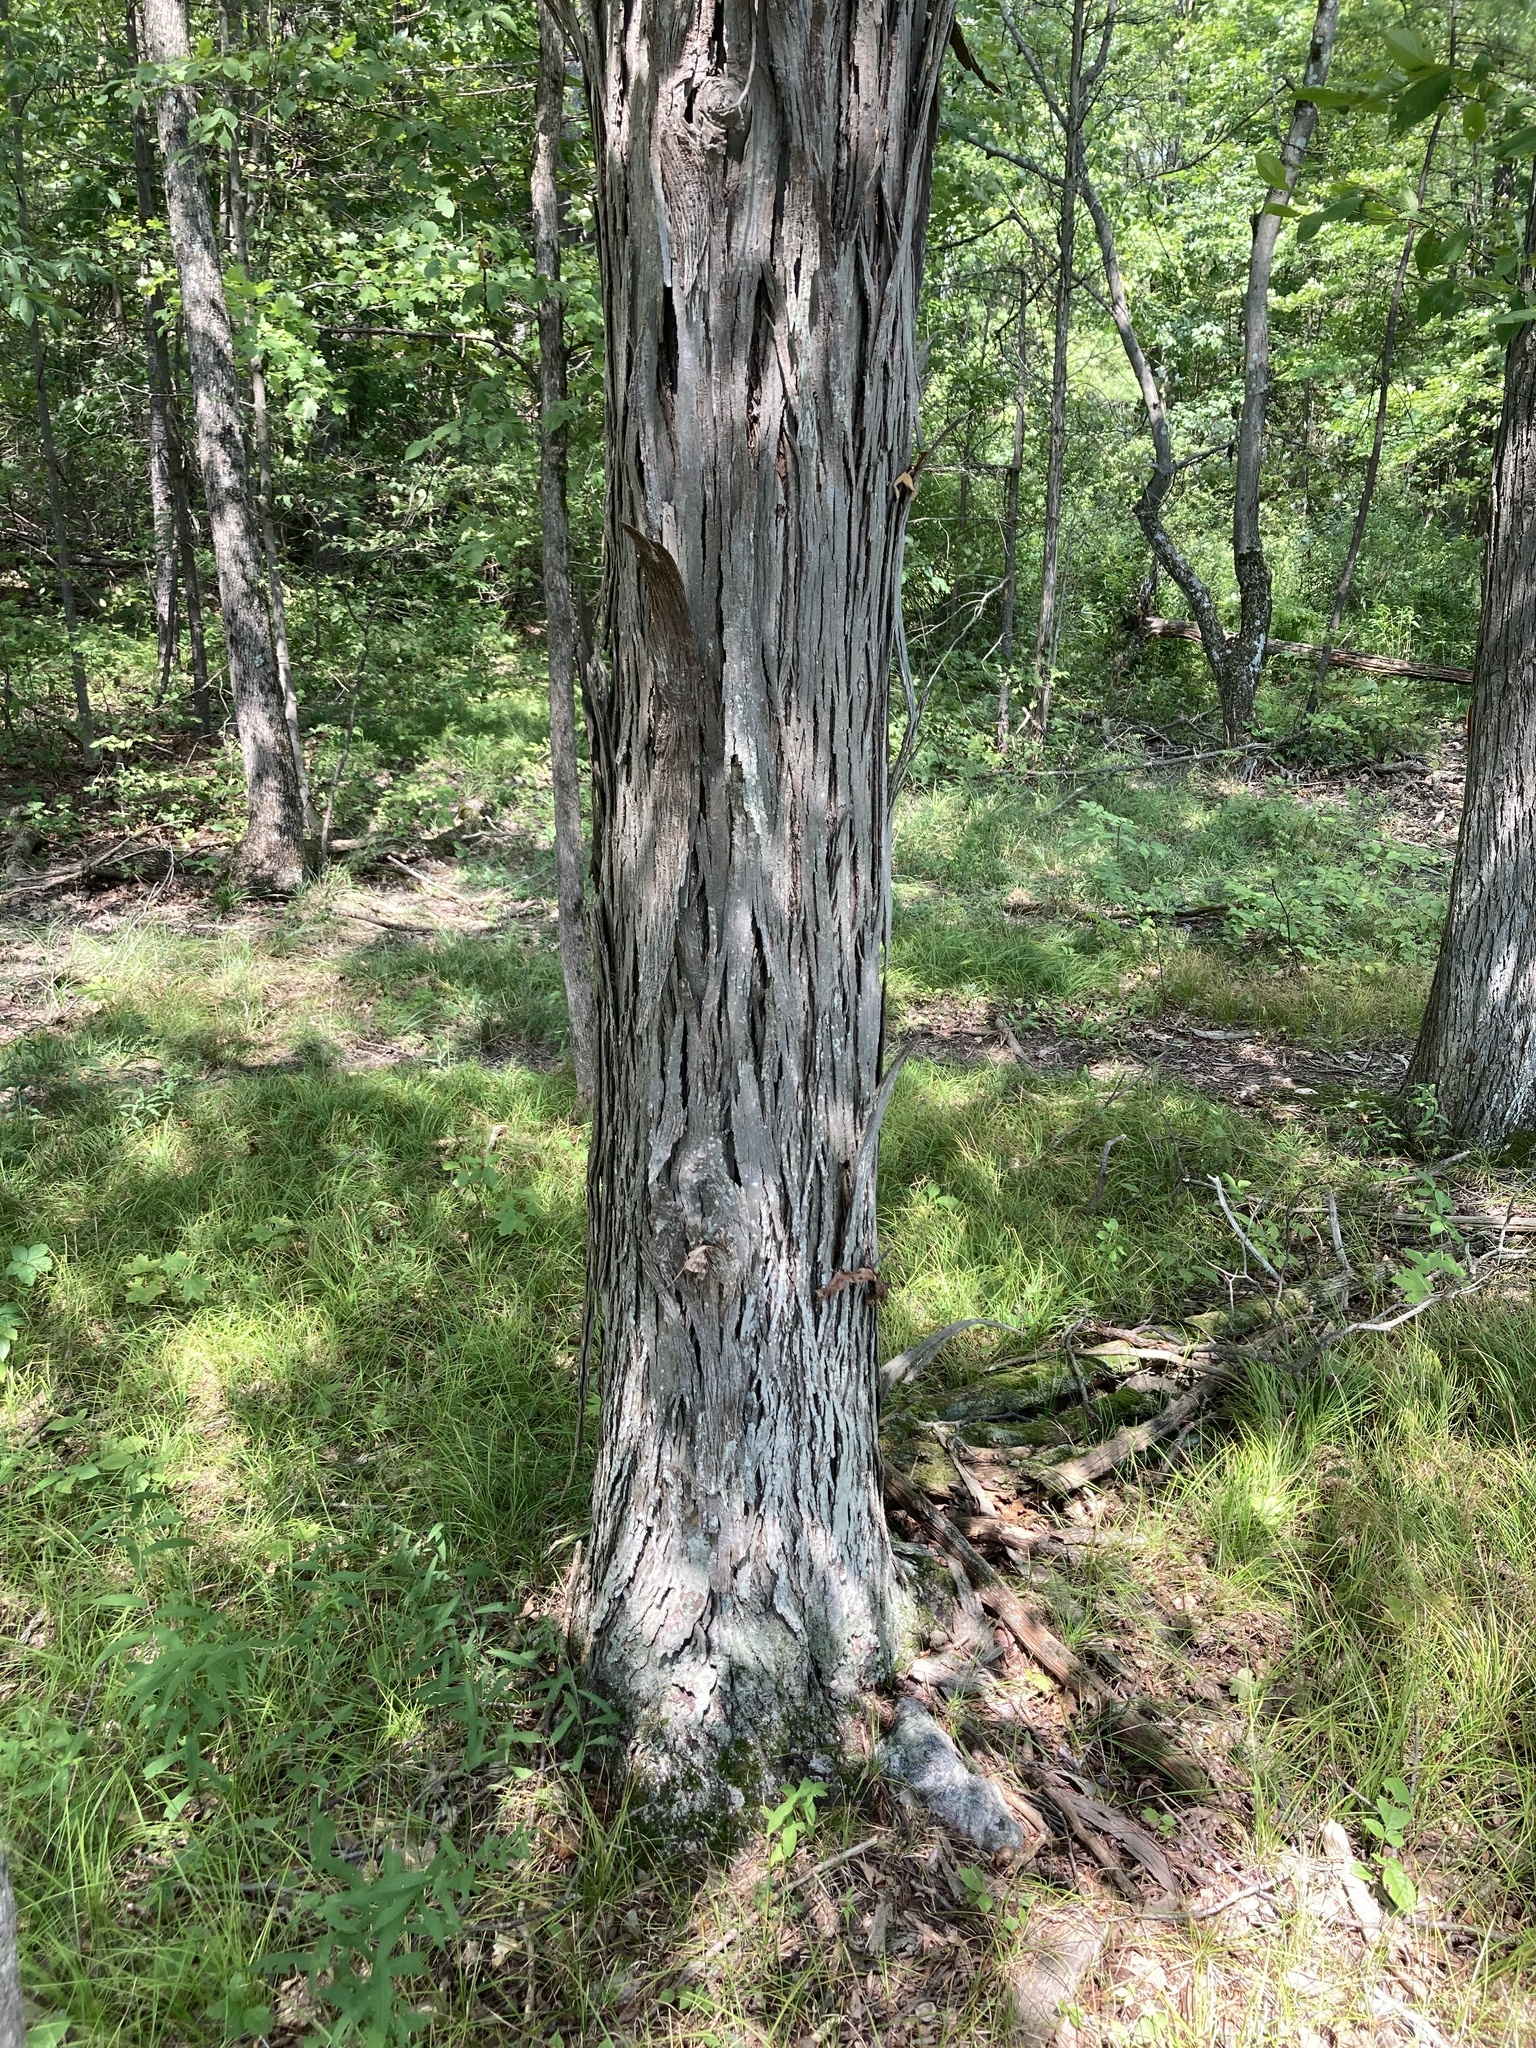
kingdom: Plantae
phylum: Tracheophyta
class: Magnoliopsida
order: Fagales
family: Juglandaceae
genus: Carya
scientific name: Carya ovata
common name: Shagbark hickory
